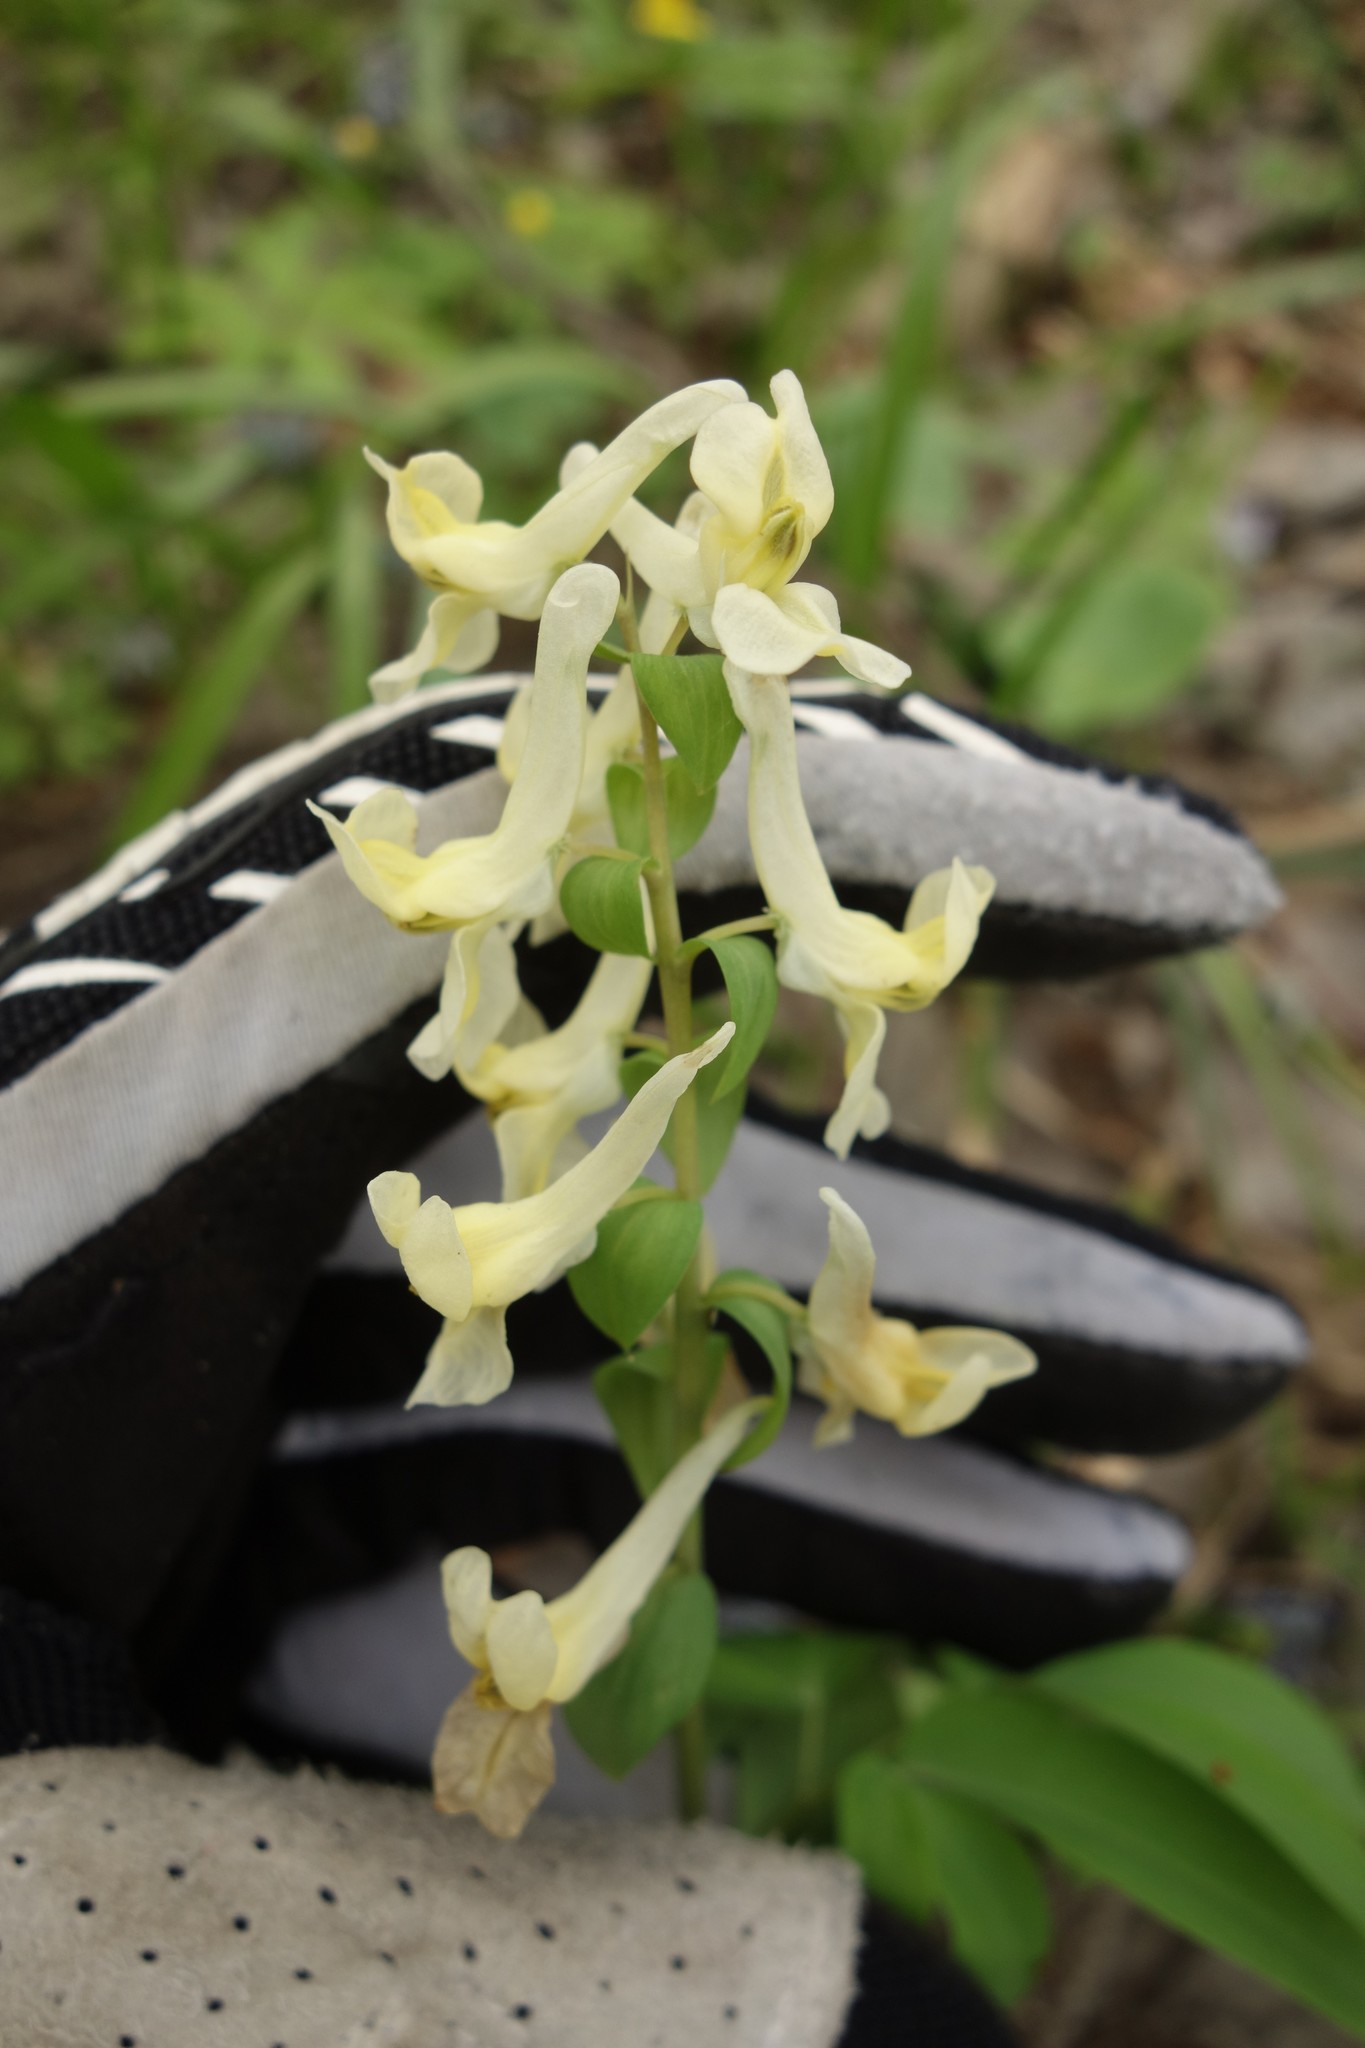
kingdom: Plantae
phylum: Tracheophyta
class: Magnoliopsida
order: Ranunculales
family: Papaveraceae
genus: Corydalis
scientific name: Corydalis cava
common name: Hollowroot
